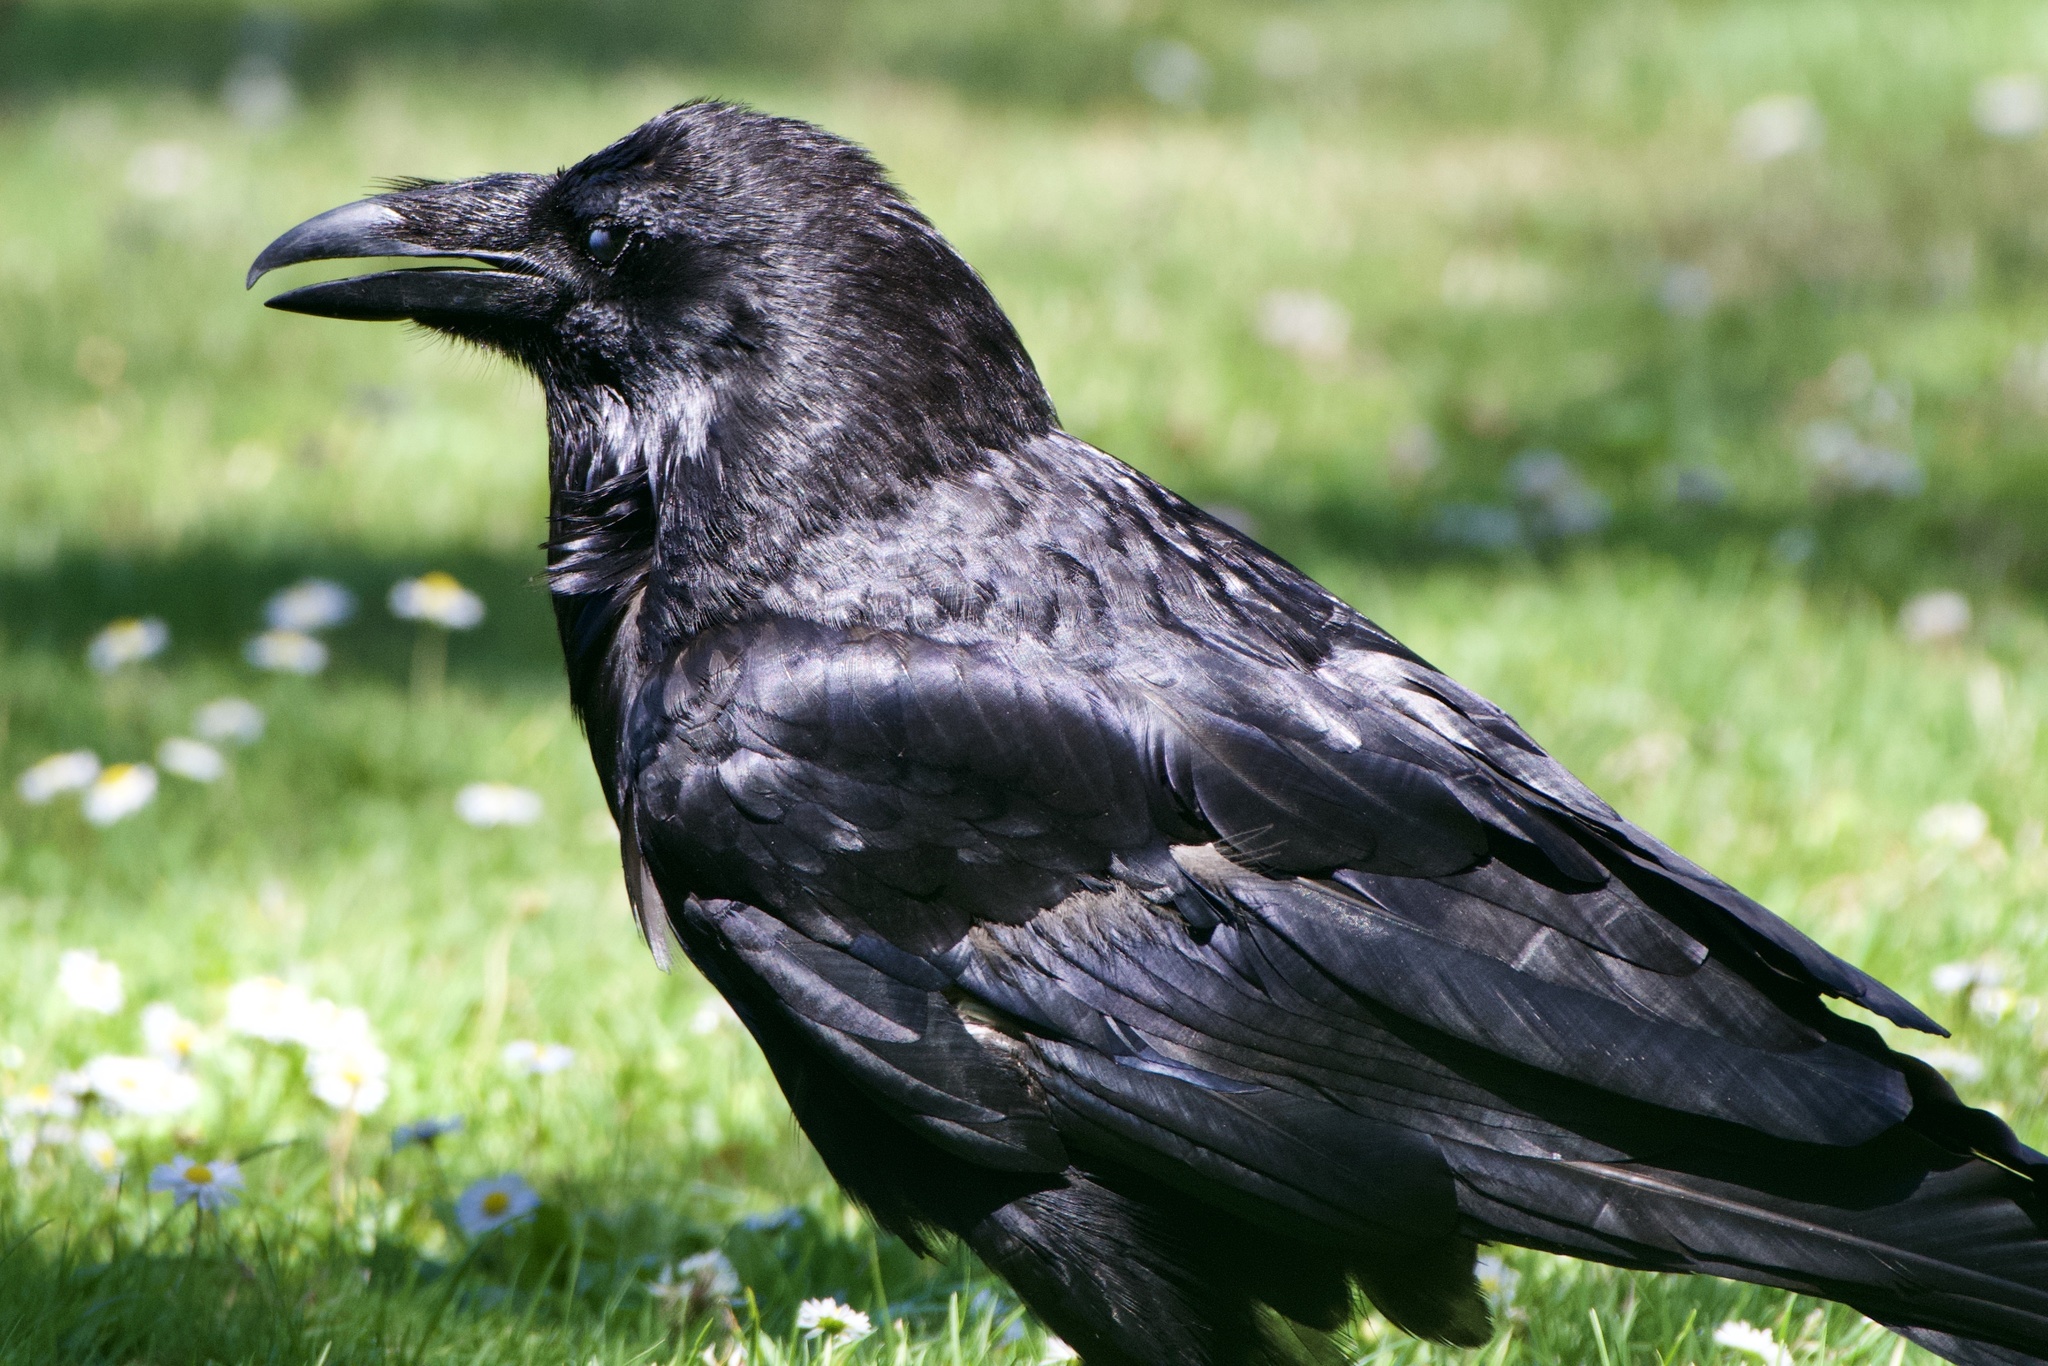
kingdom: Animalia
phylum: Chordata
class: Aves
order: Passeriformes
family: Corvidae
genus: Corvus
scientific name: Corvus corax
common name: Common raven
